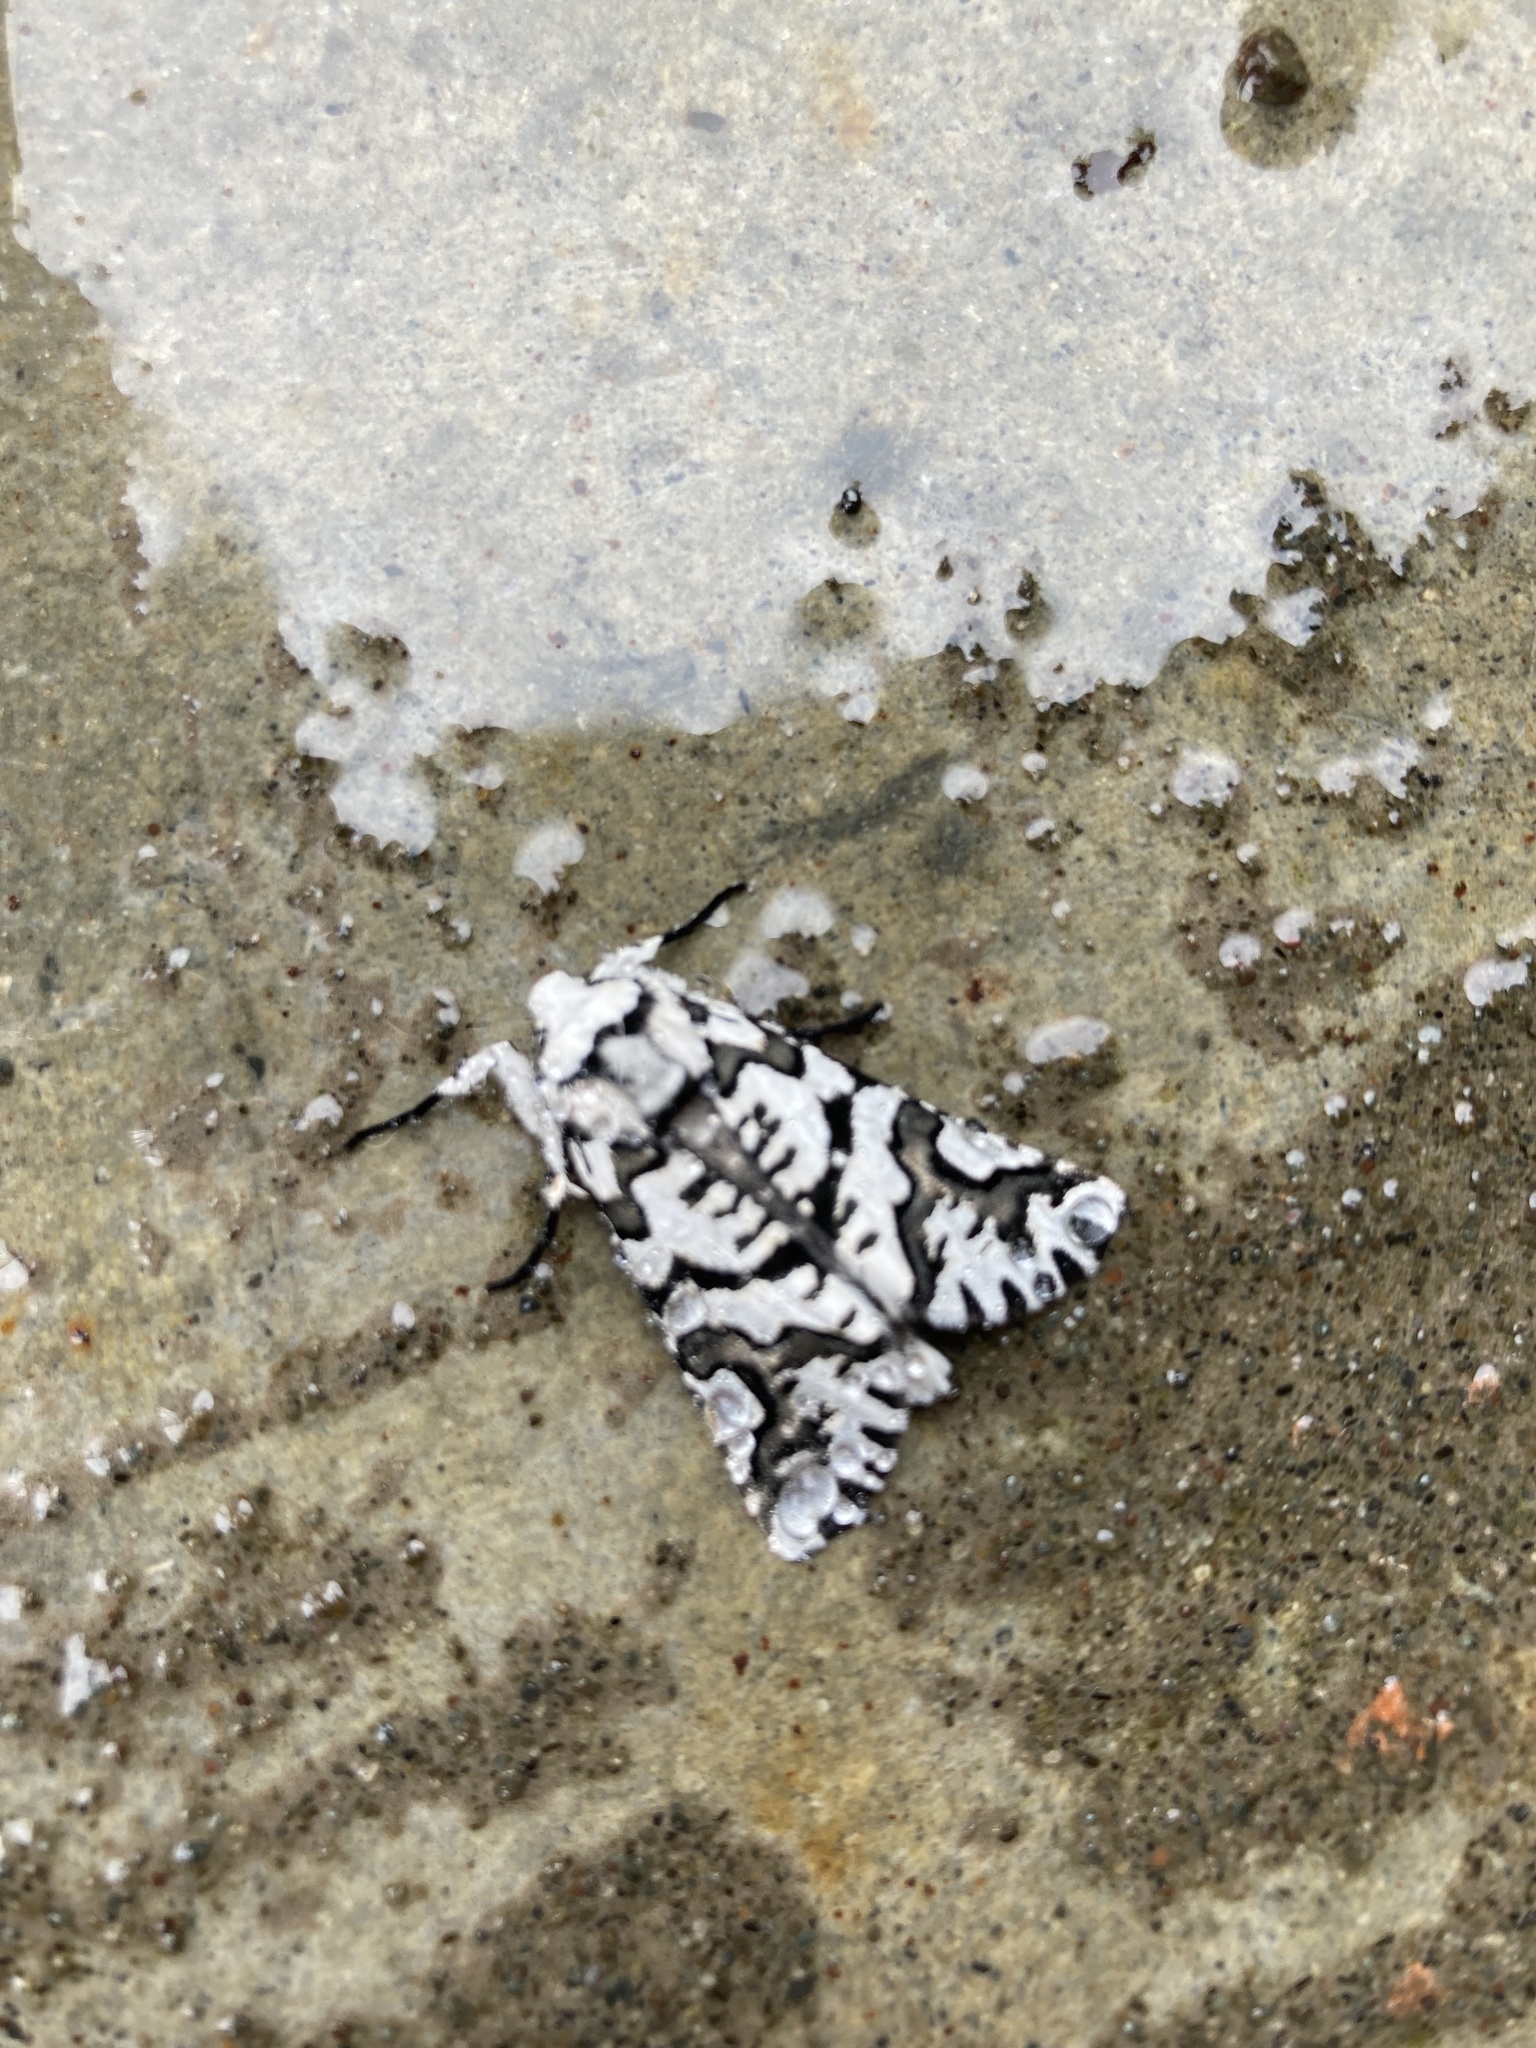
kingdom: Animalia
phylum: Arthropoda
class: Insecta
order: Lepidoptera
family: Geometridae
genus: Declana
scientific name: Declana
